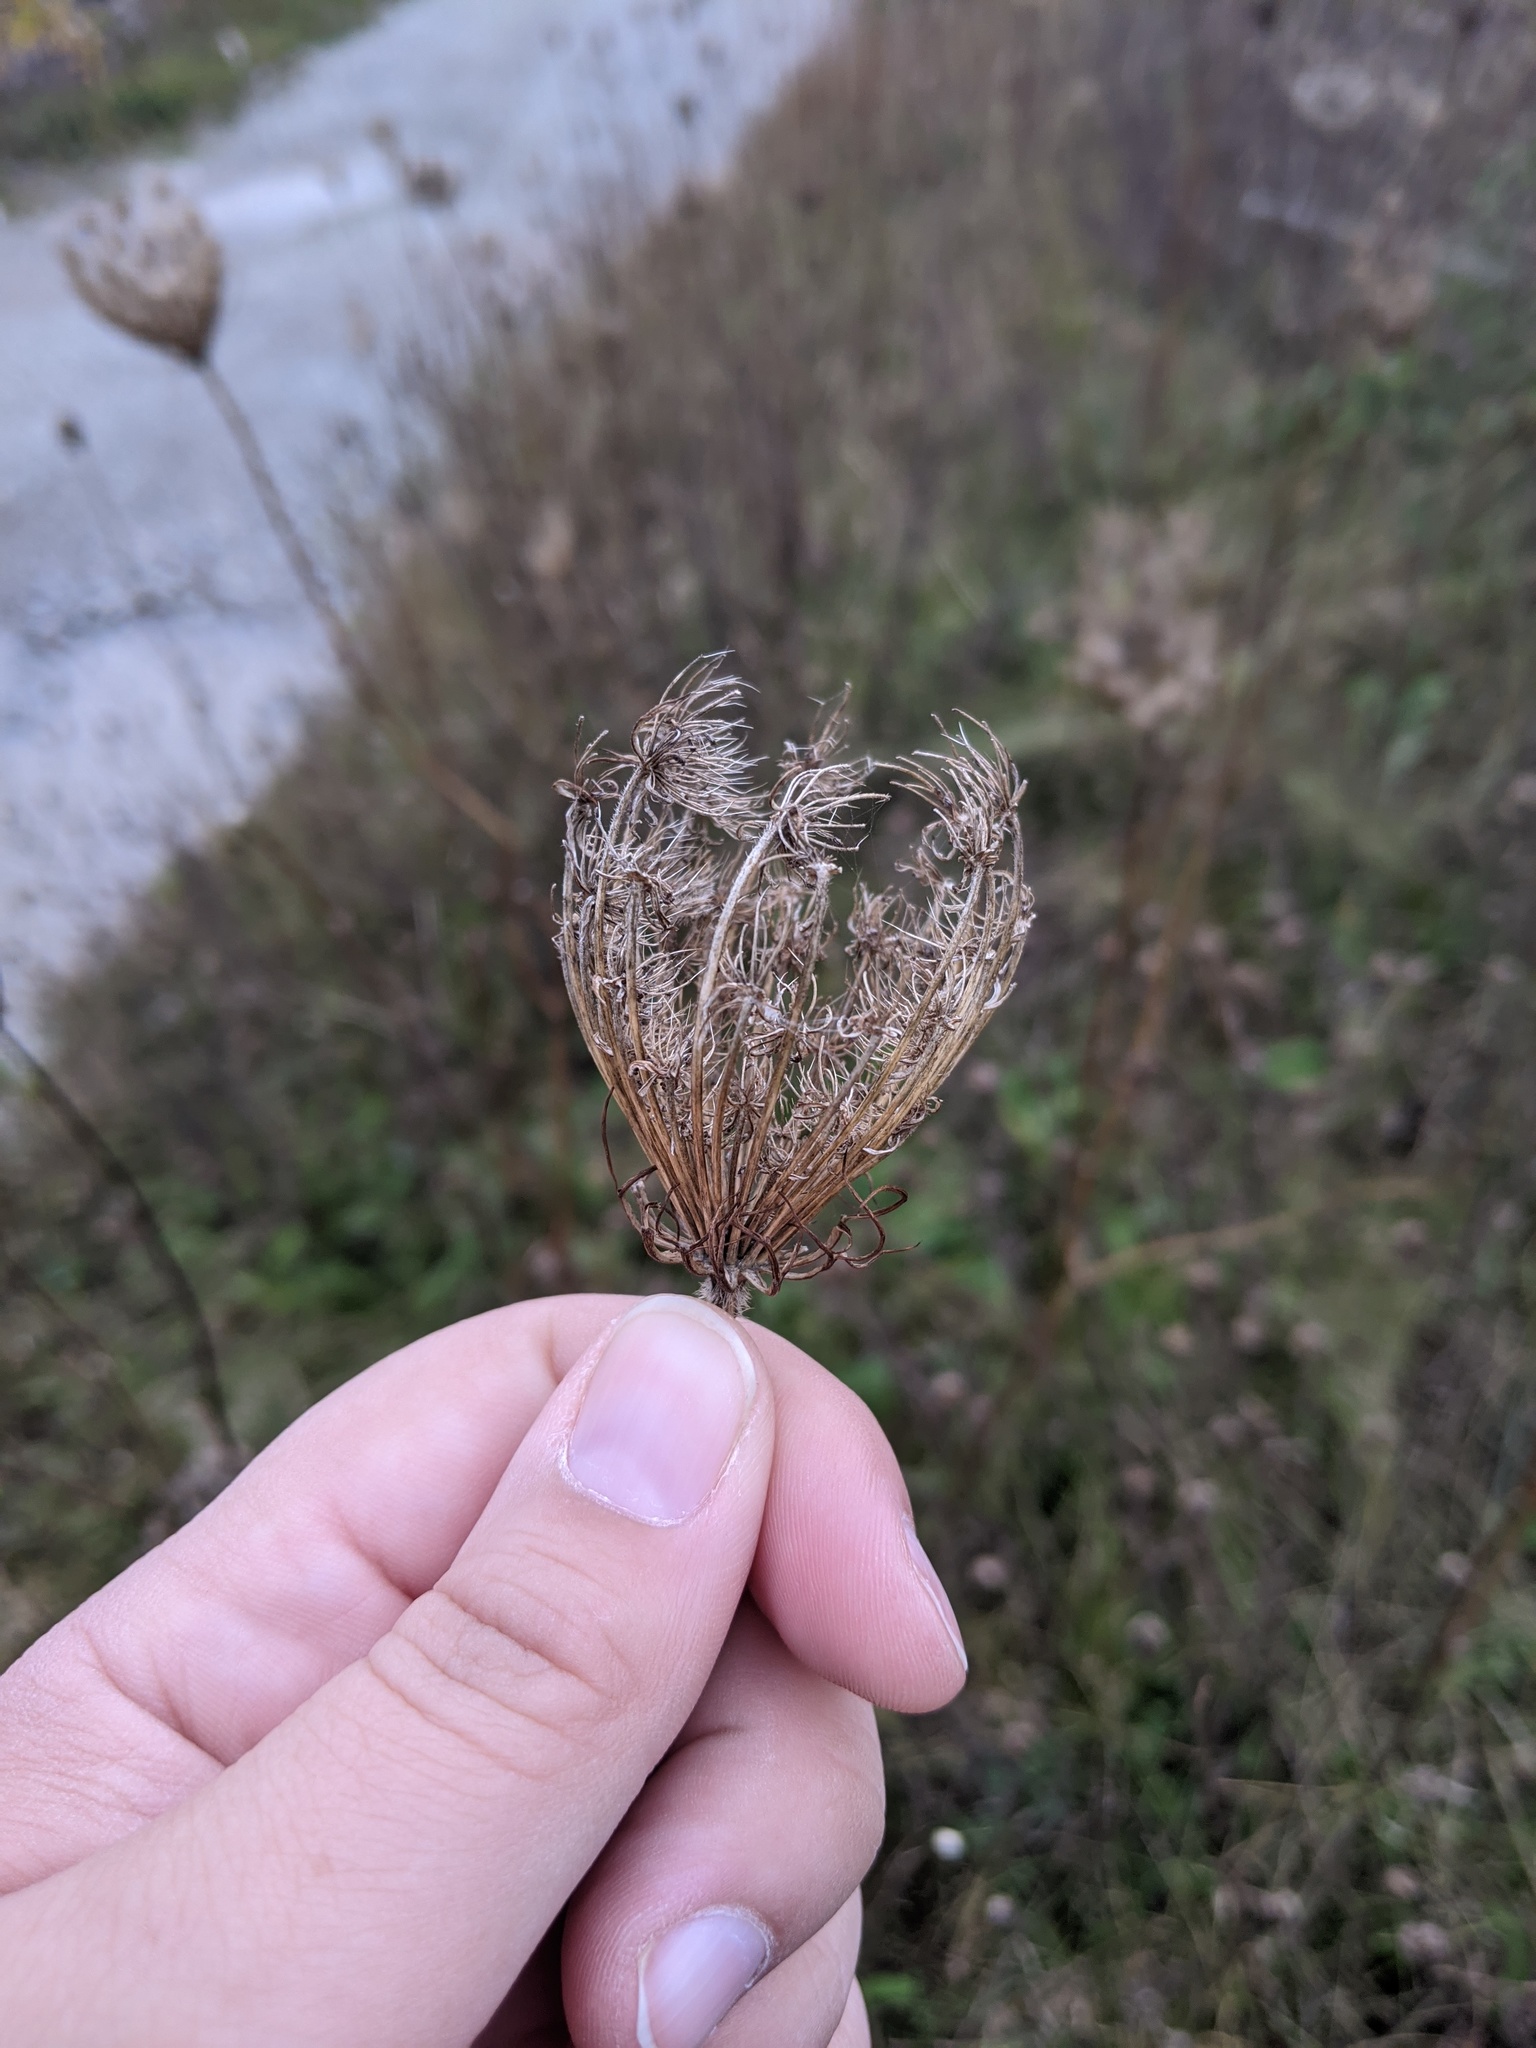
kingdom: Plantae
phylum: Tracheophyta
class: Magnoliopsida
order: Apiales
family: Apiaceae
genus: Daucus
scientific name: Daucus carota
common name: Wild carrot
